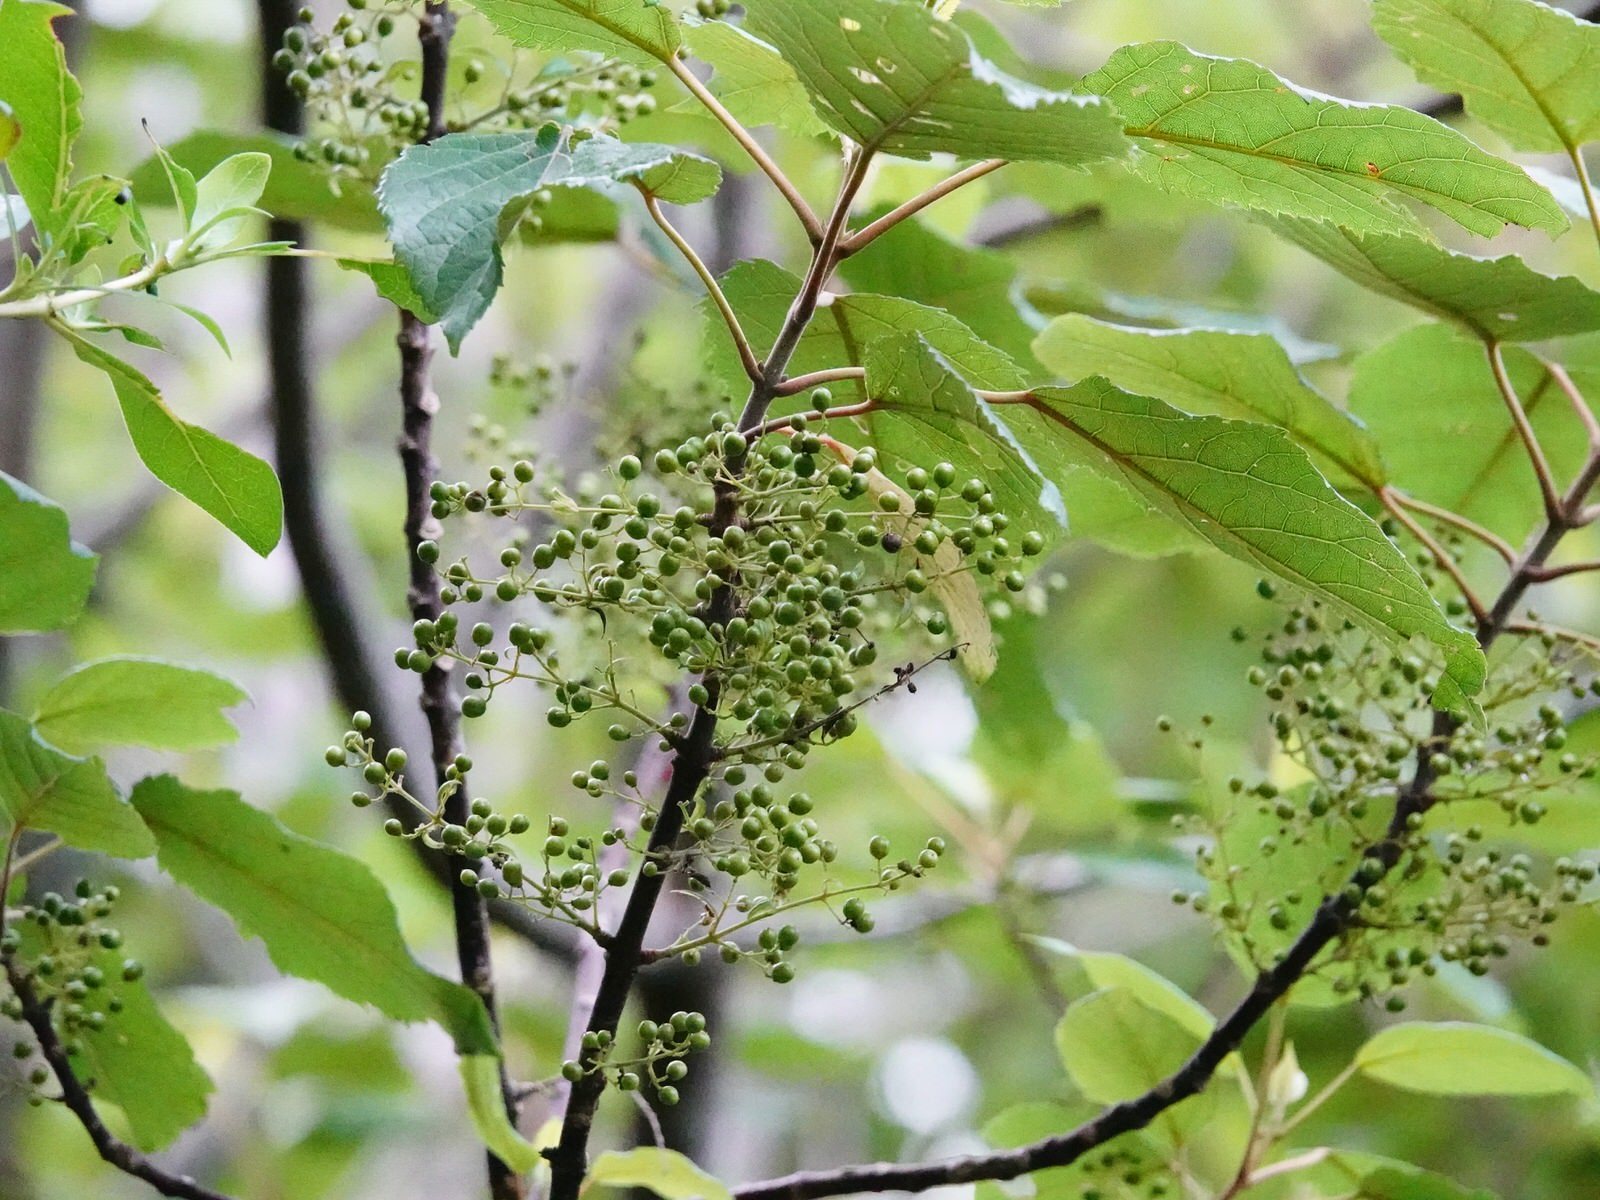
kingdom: Plantae
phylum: Tracheophyta
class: Magnoliopsida
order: Oxalidales
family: Elaeocarpaceae
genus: Aristotelia
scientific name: Aristotelia serrata
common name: New zealand wineberry
